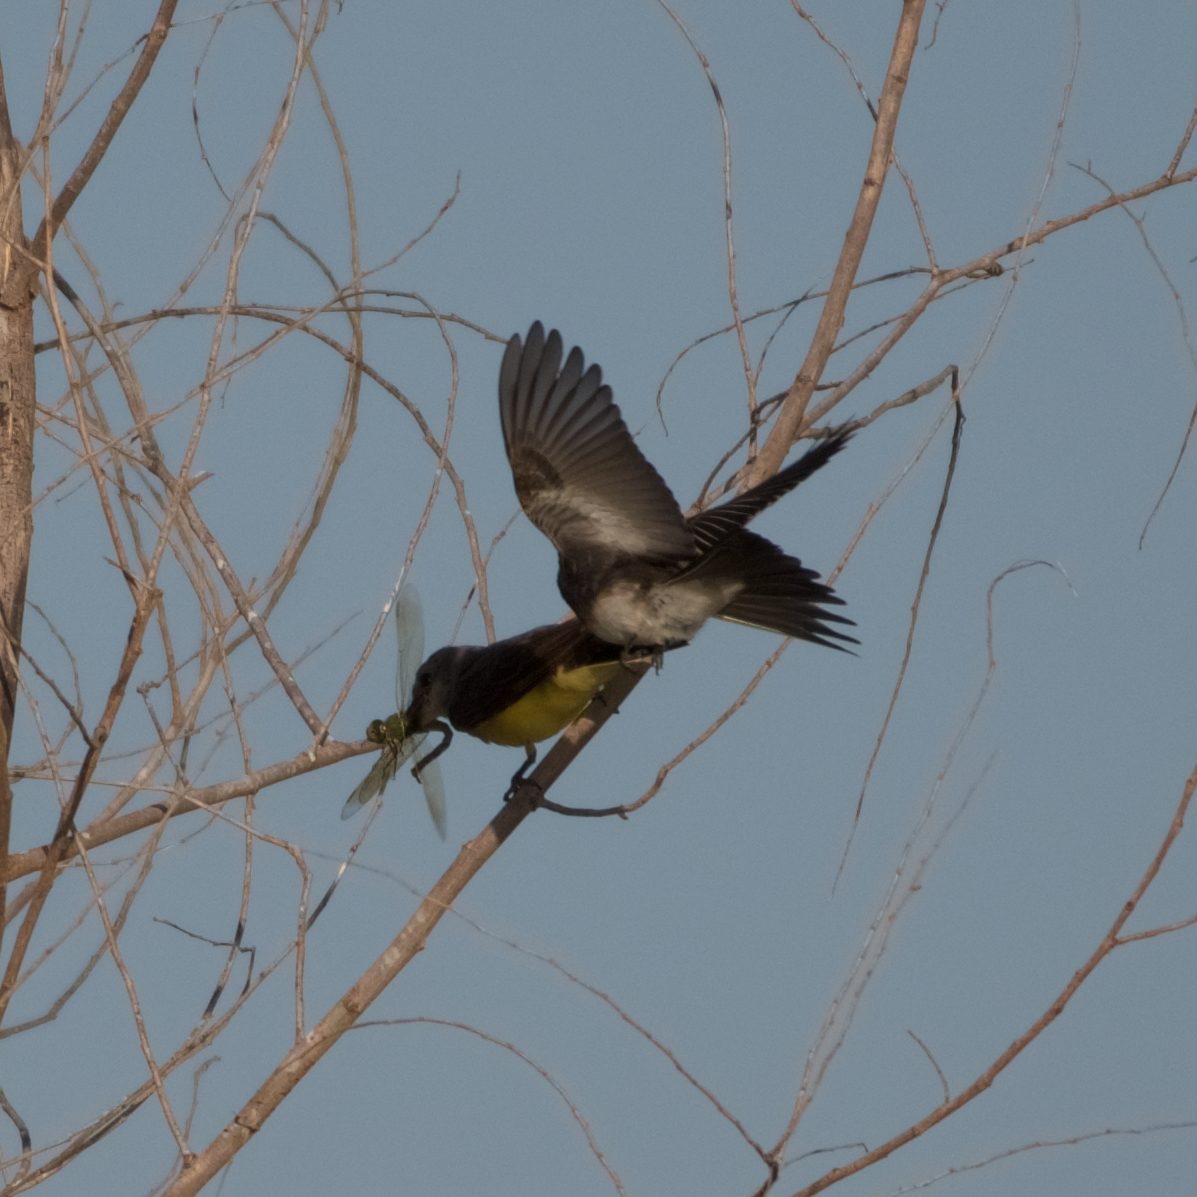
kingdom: Animalia
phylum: Chordata
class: Aves
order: Passeriformes
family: Tyrannidae
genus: Tyrannus
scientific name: Tyrannus verticalis
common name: Western kingbird
